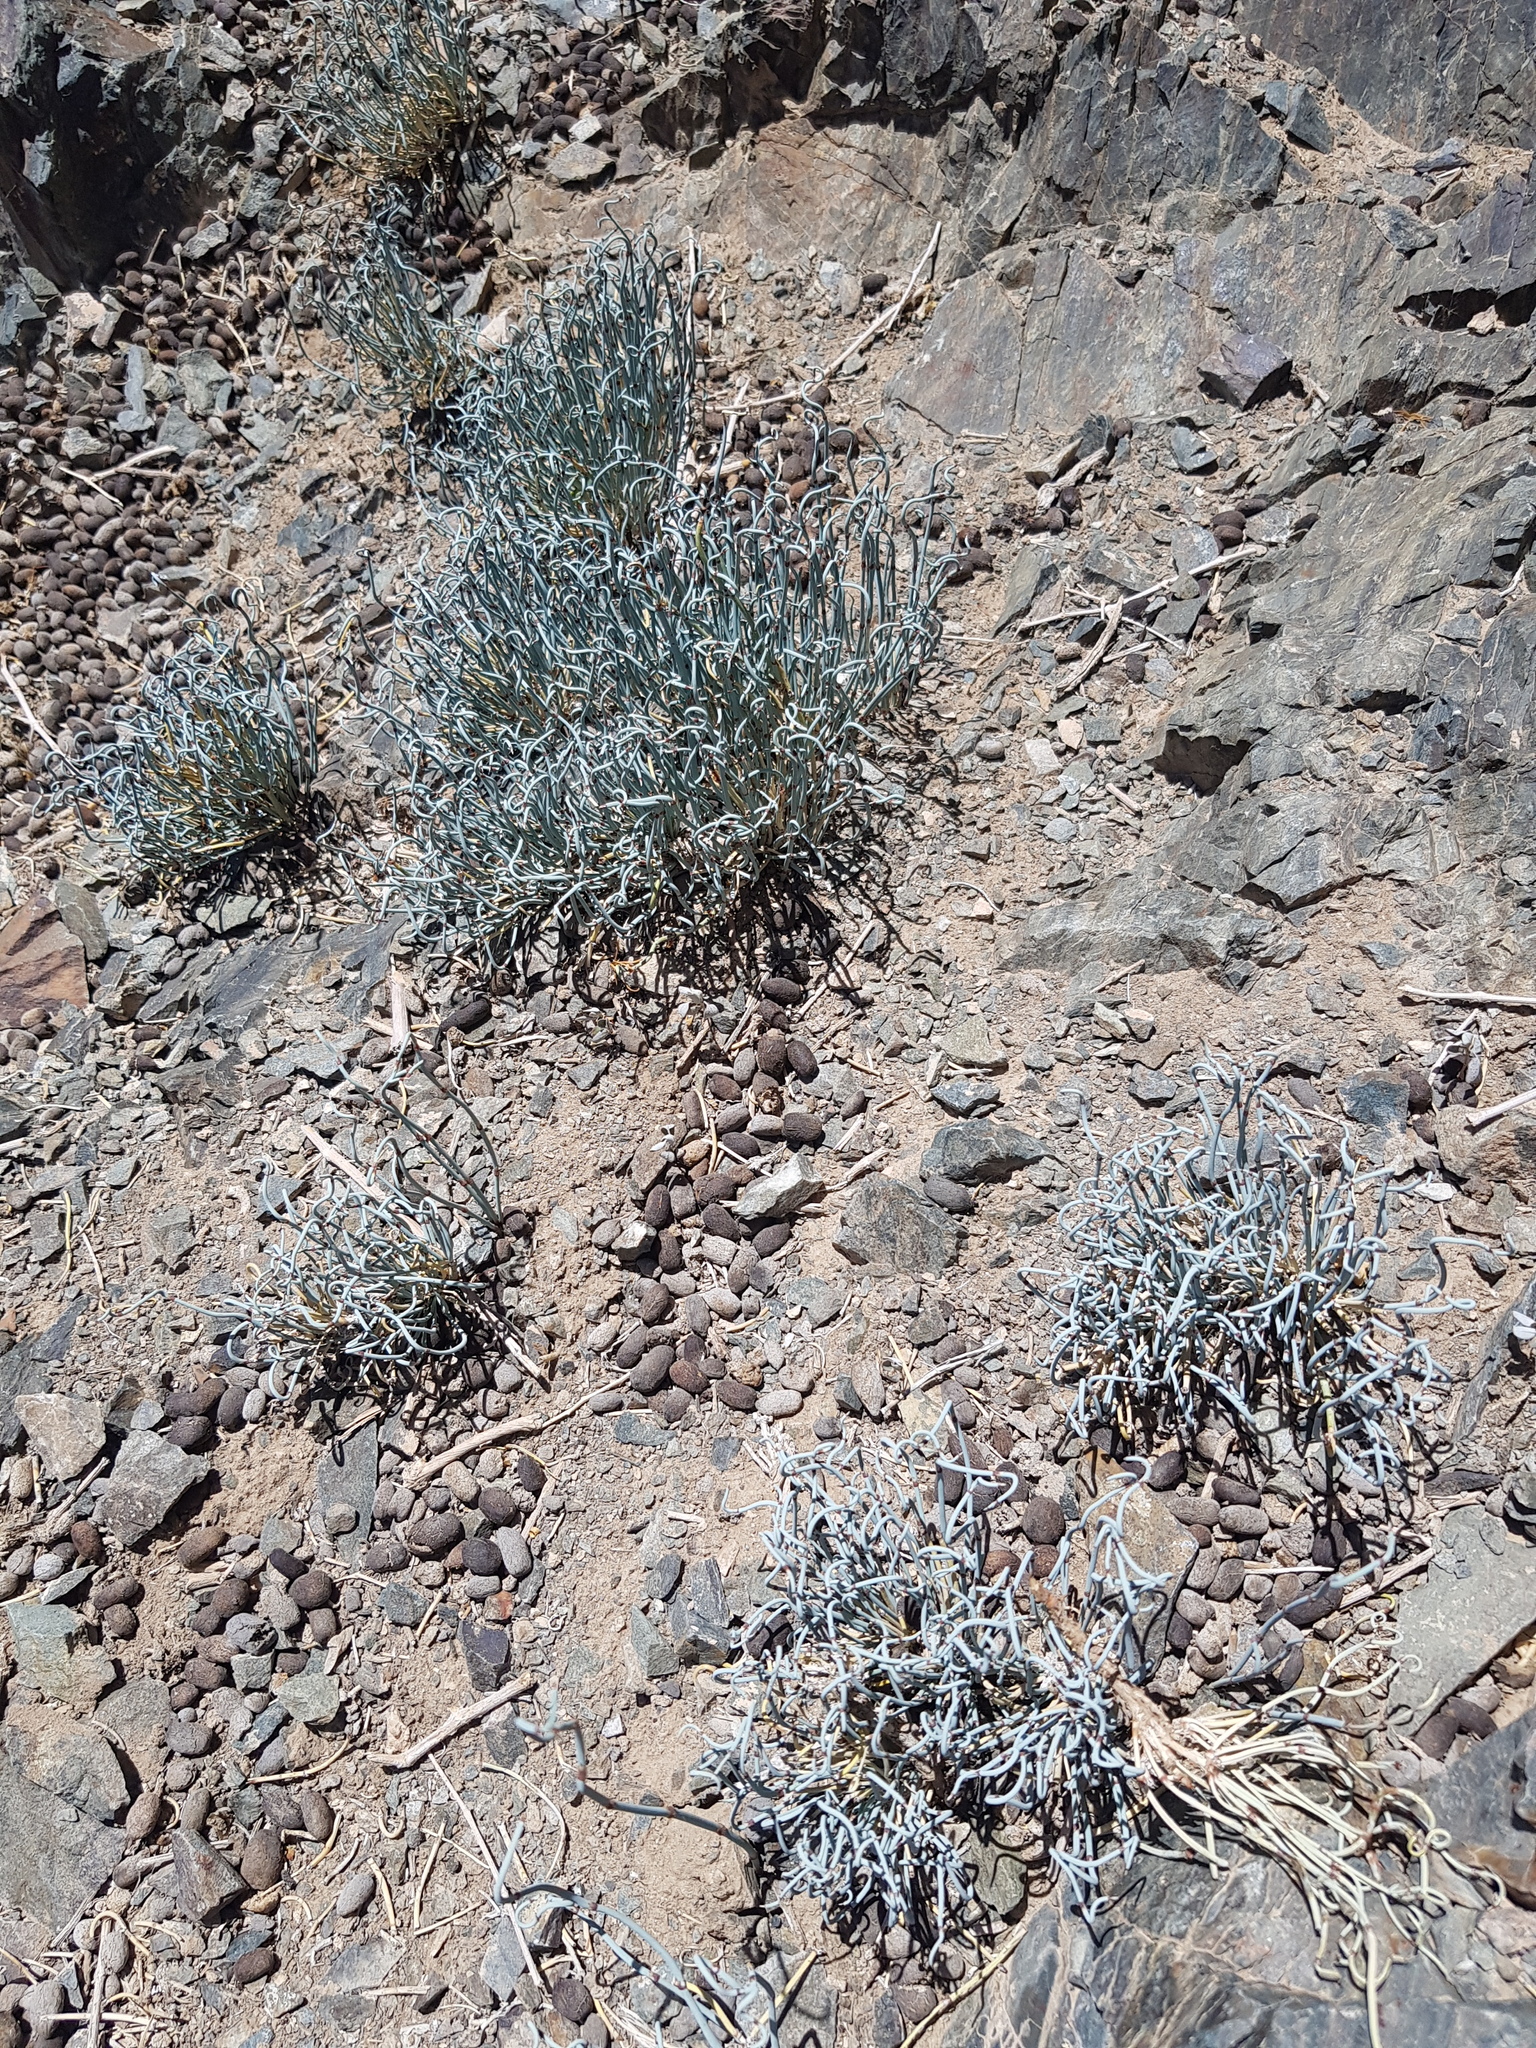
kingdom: Plantae
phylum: Tracheophyta
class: Gnetopsida
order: Ephedrales
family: Ephedraceae
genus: Ephedra
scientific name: Ephedra equisetina
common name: Mongolian ephedra
